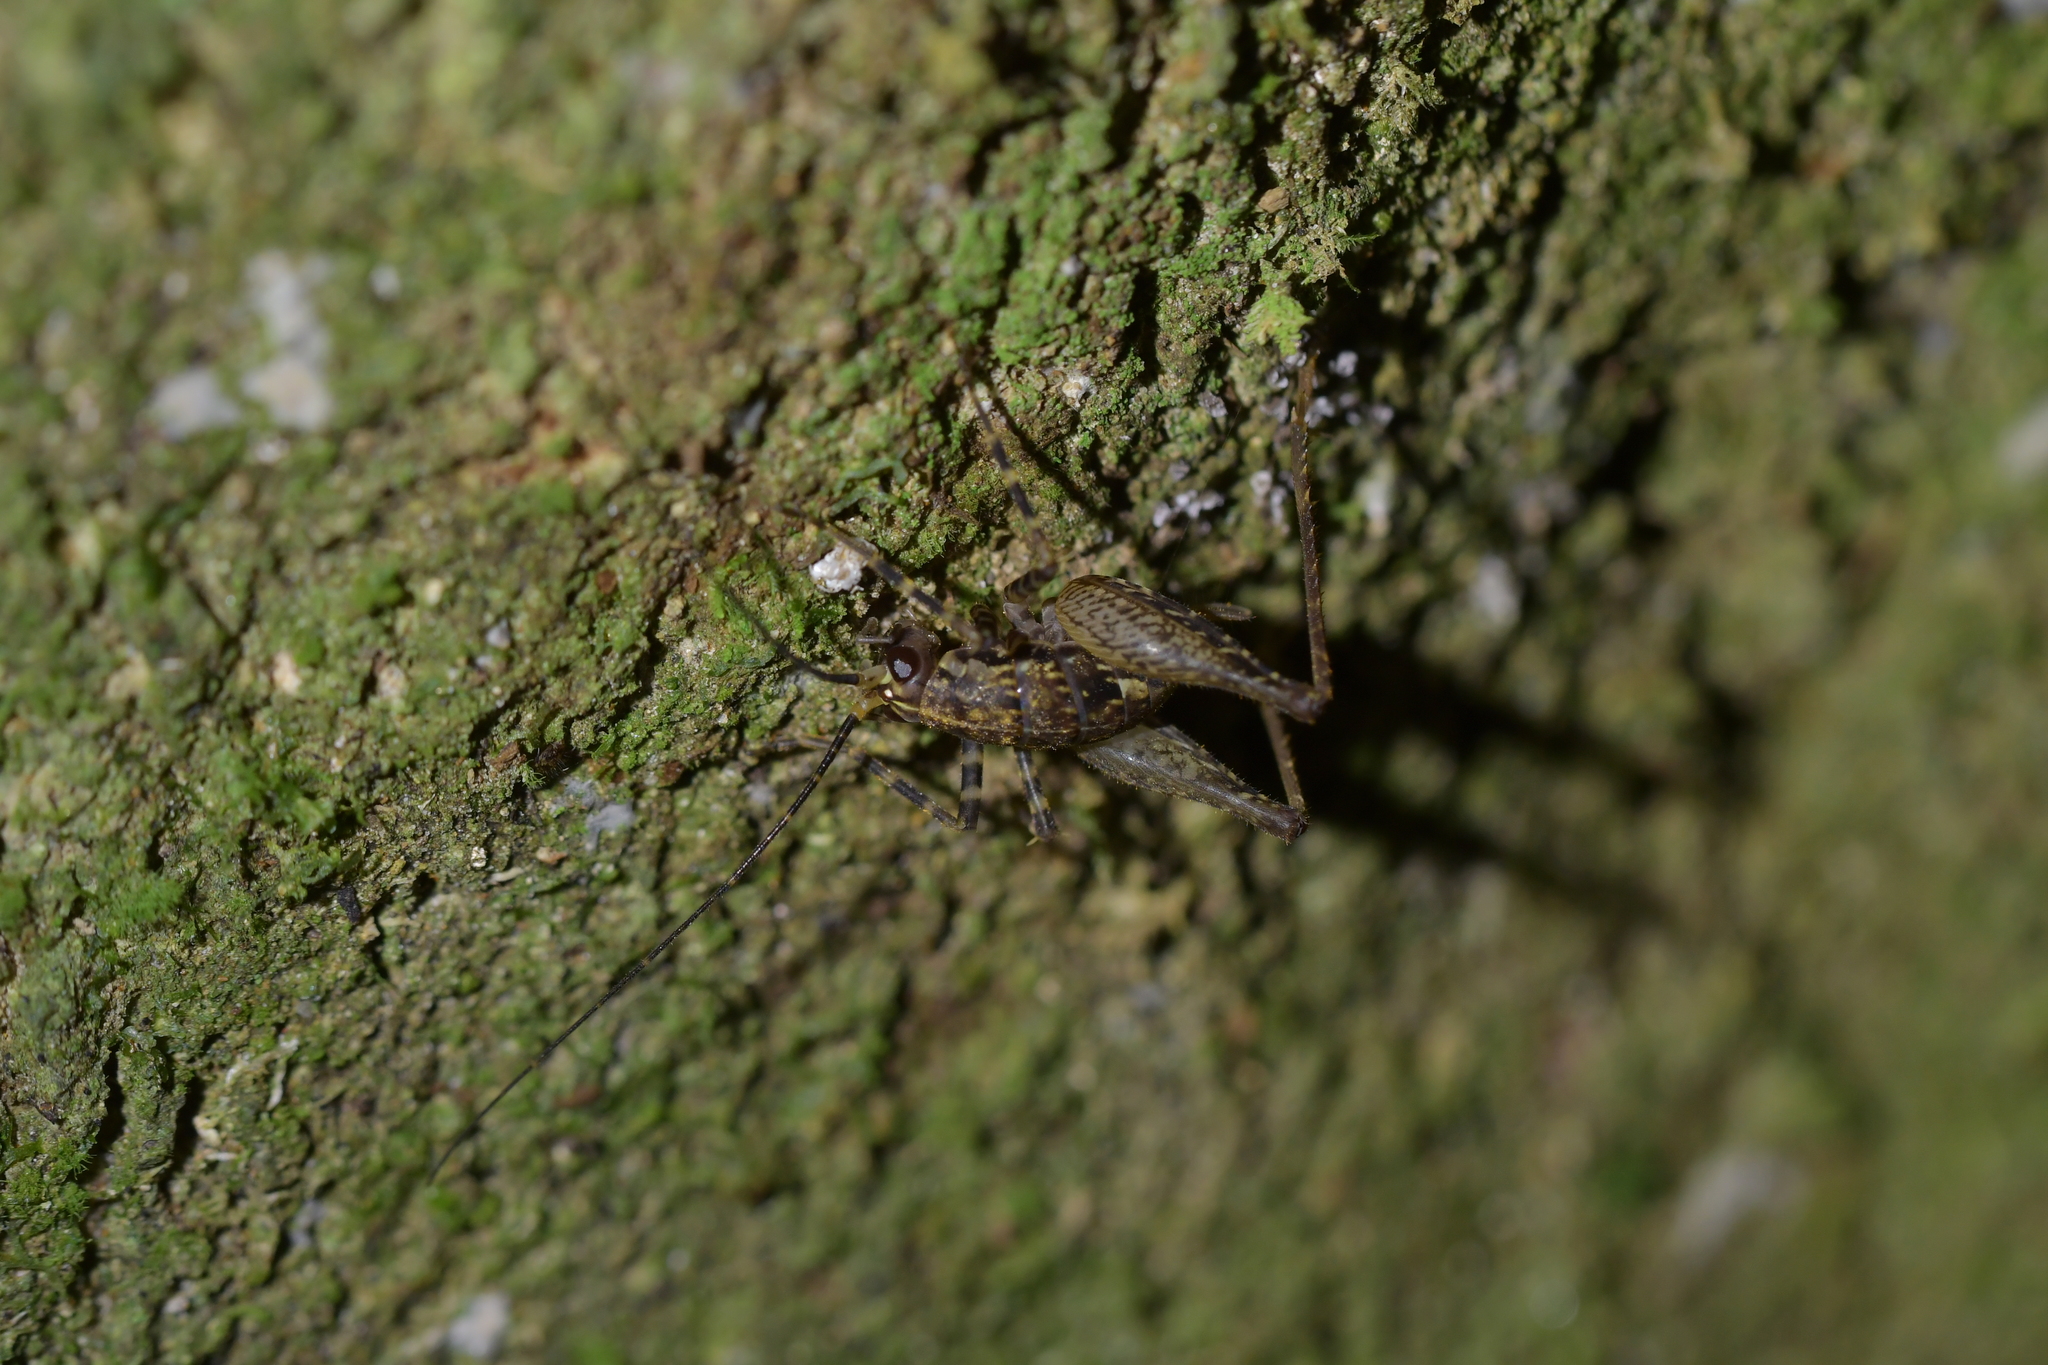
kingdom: Animalia
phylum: Arthropoda
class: Insecta
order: Orthoptera
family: Rhaphidophoridae
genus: Pleioplectron
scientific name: Pleioplectron hudsoni
